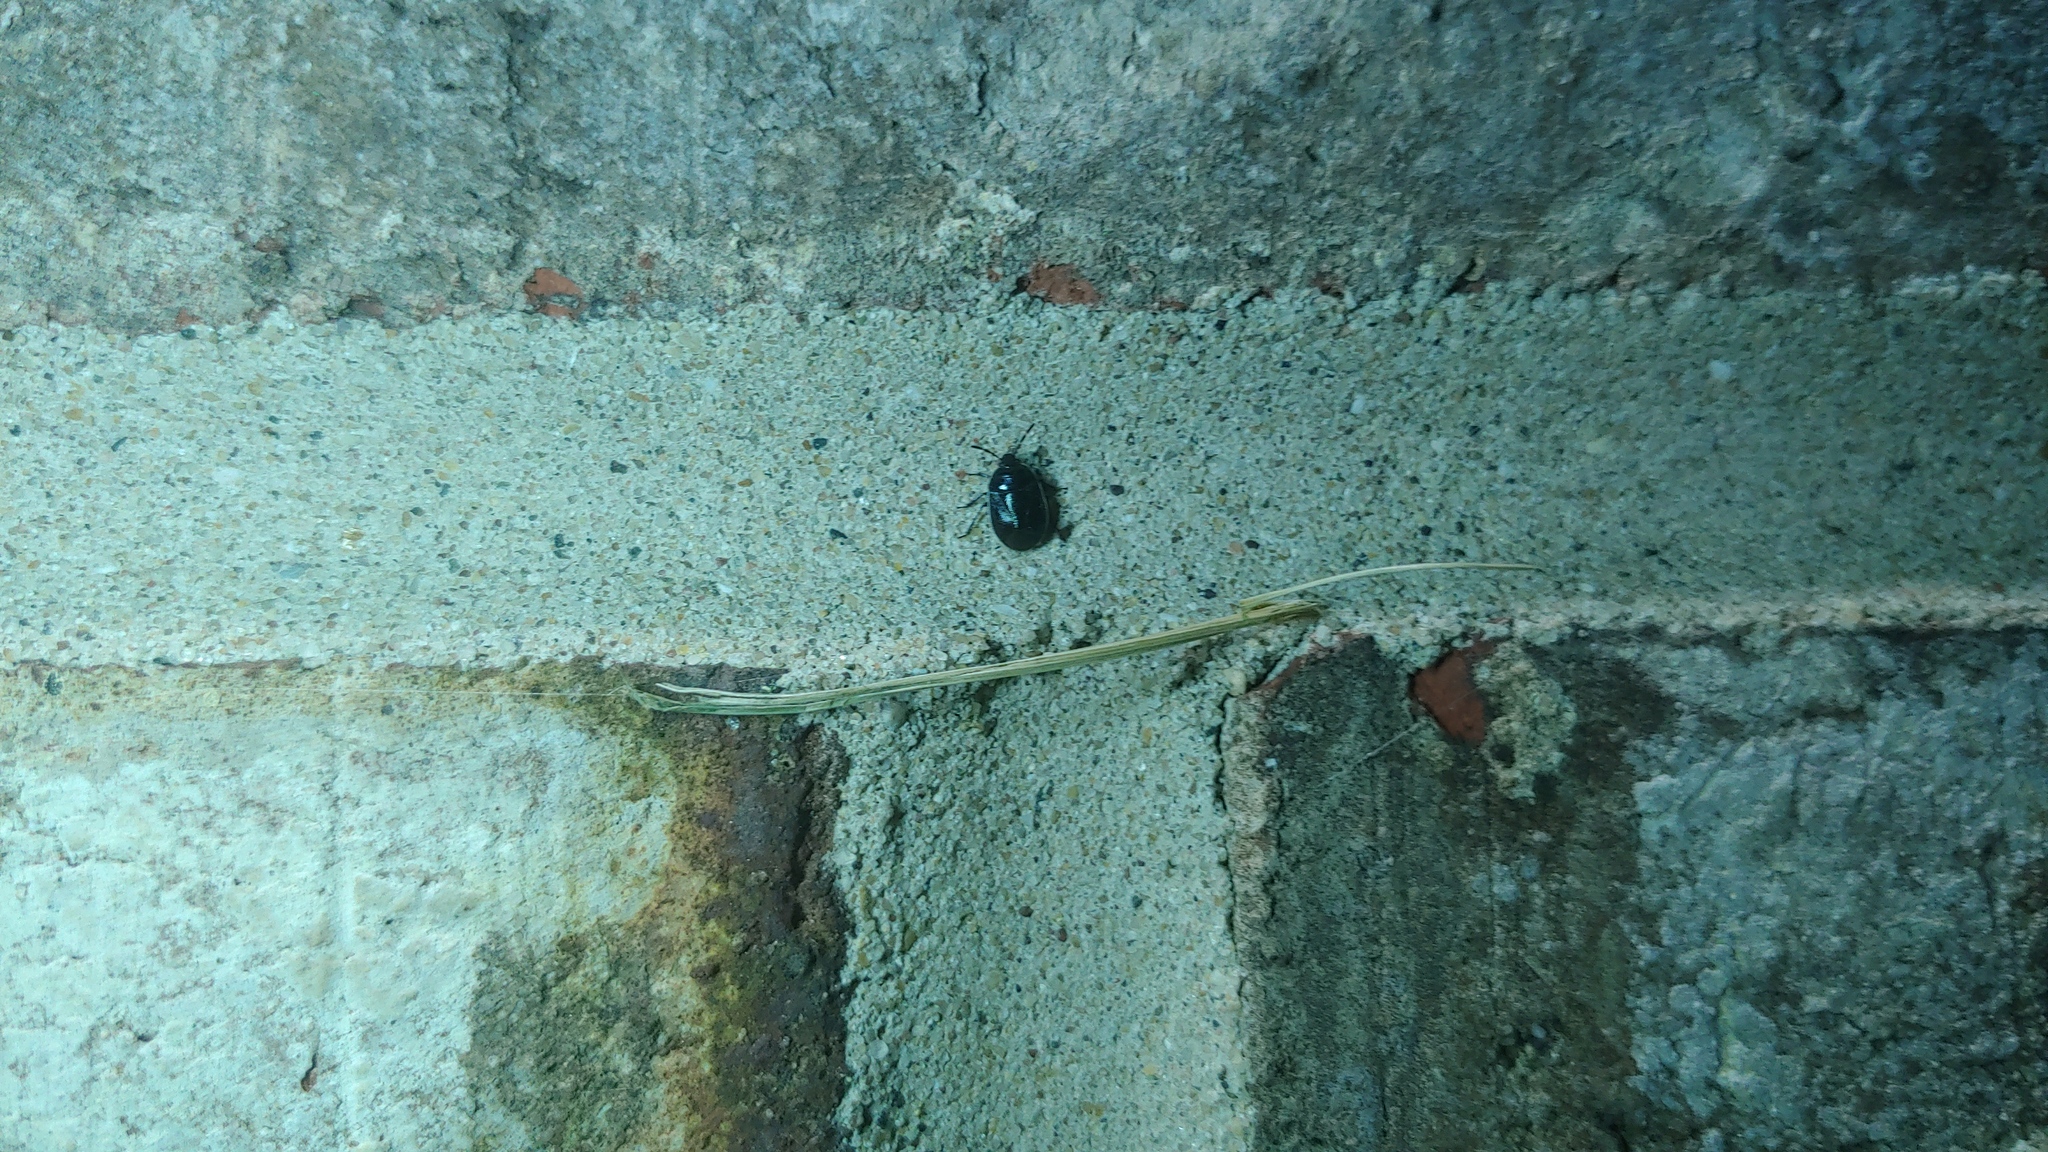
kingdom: Animalia
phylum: Arthropoda
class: Insecta
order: Hemiptera
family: Cydnidae
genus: Sehirus
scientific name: Sehirus cinctus
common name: White-margined burrower bug
